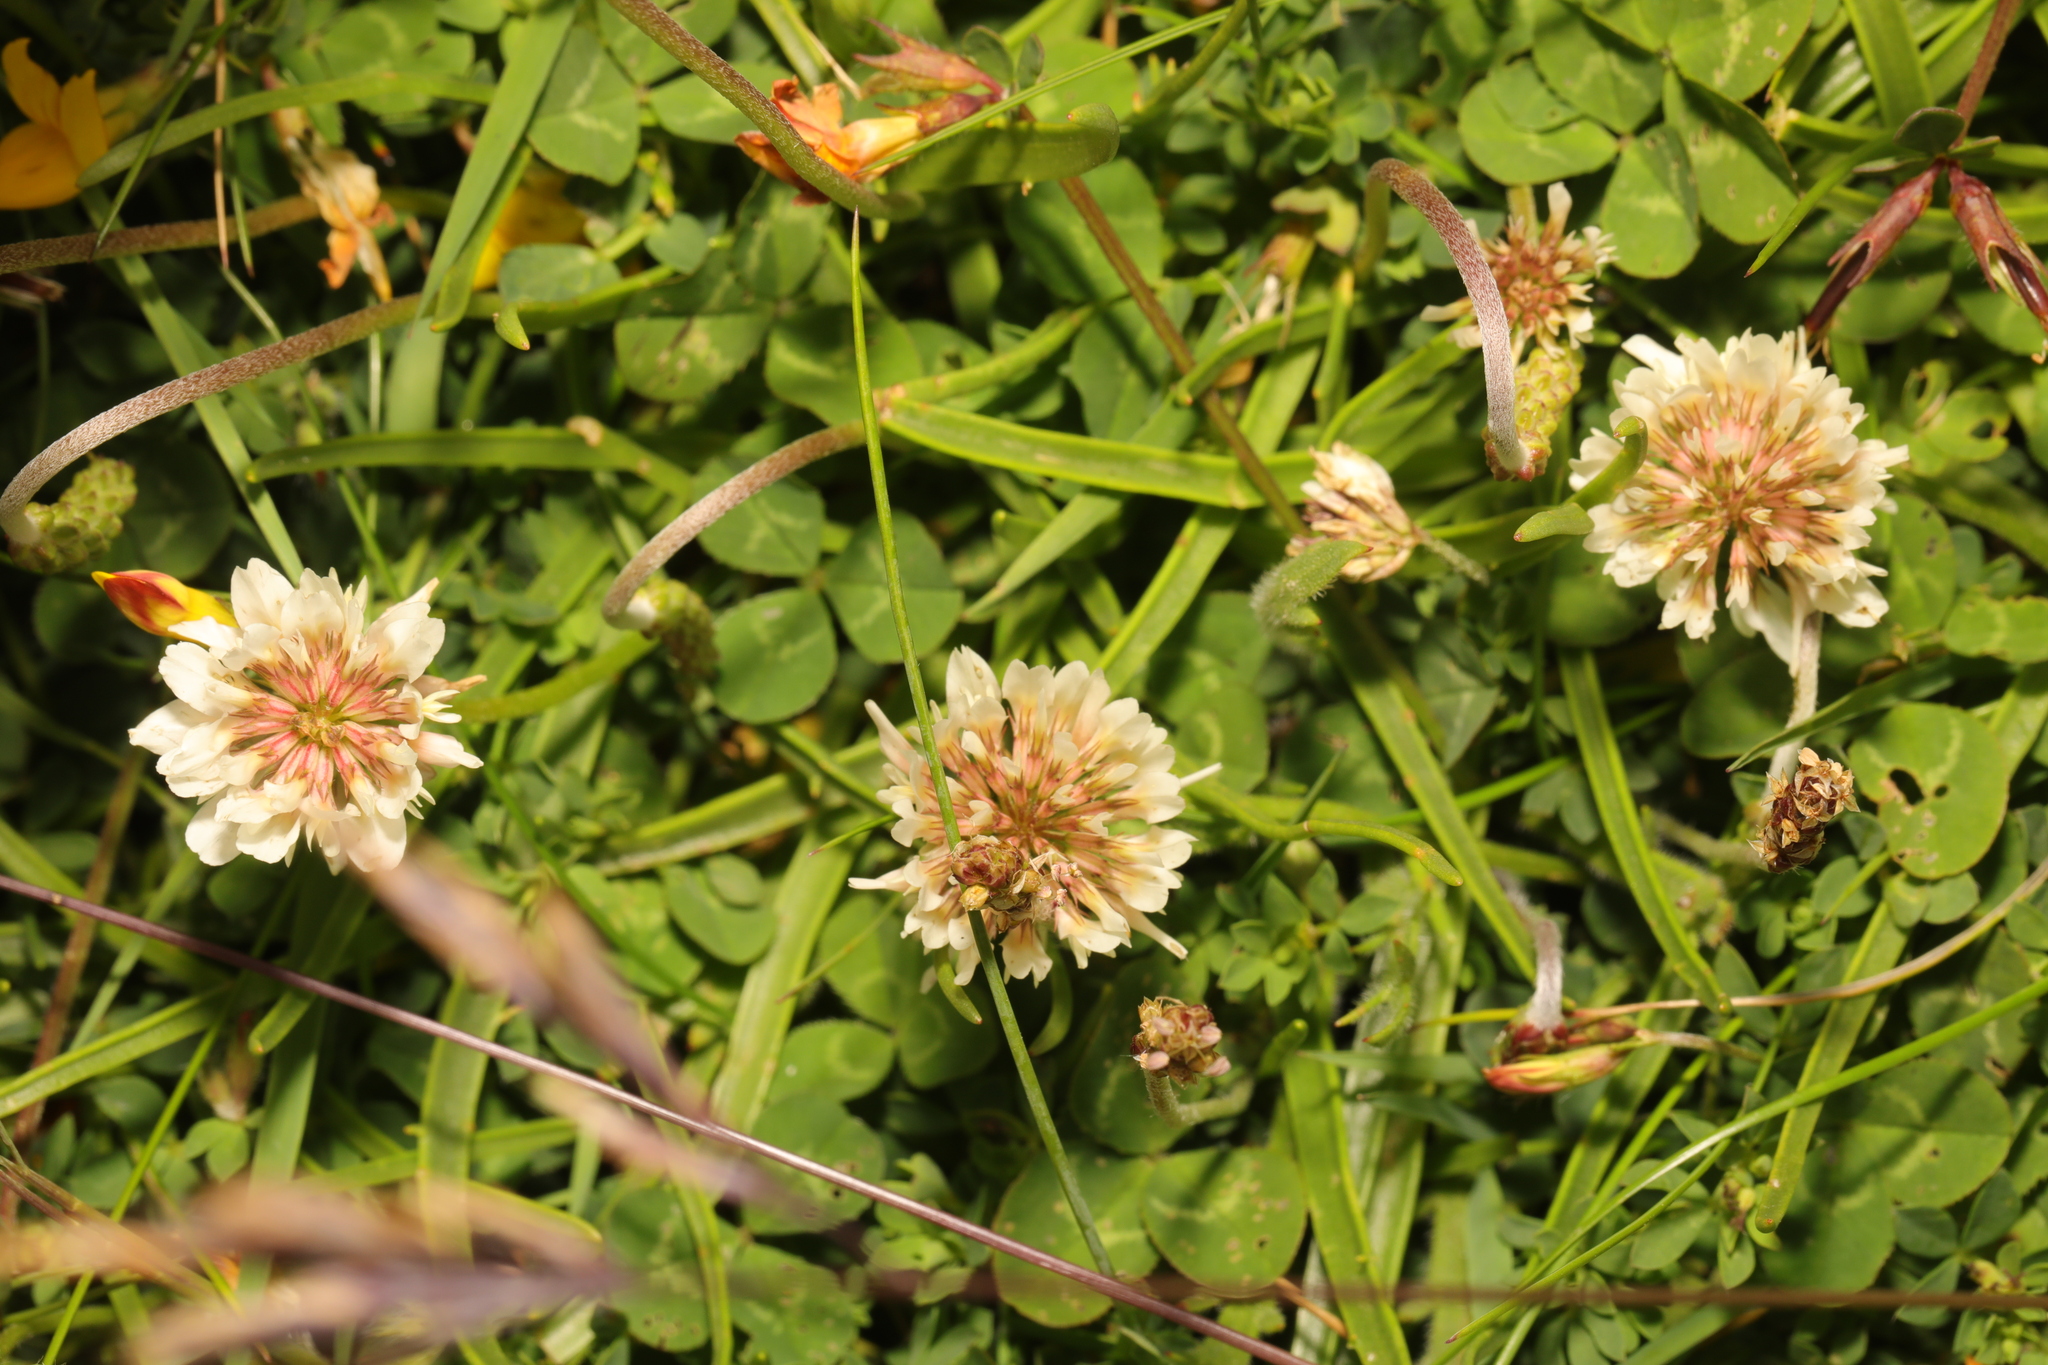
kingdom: Plantae
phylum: Tracheophyta
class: Magnoliopsida
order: Fabales
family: Fabaceae
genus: Trifolium
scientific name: Trifolium repens
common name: White clover
